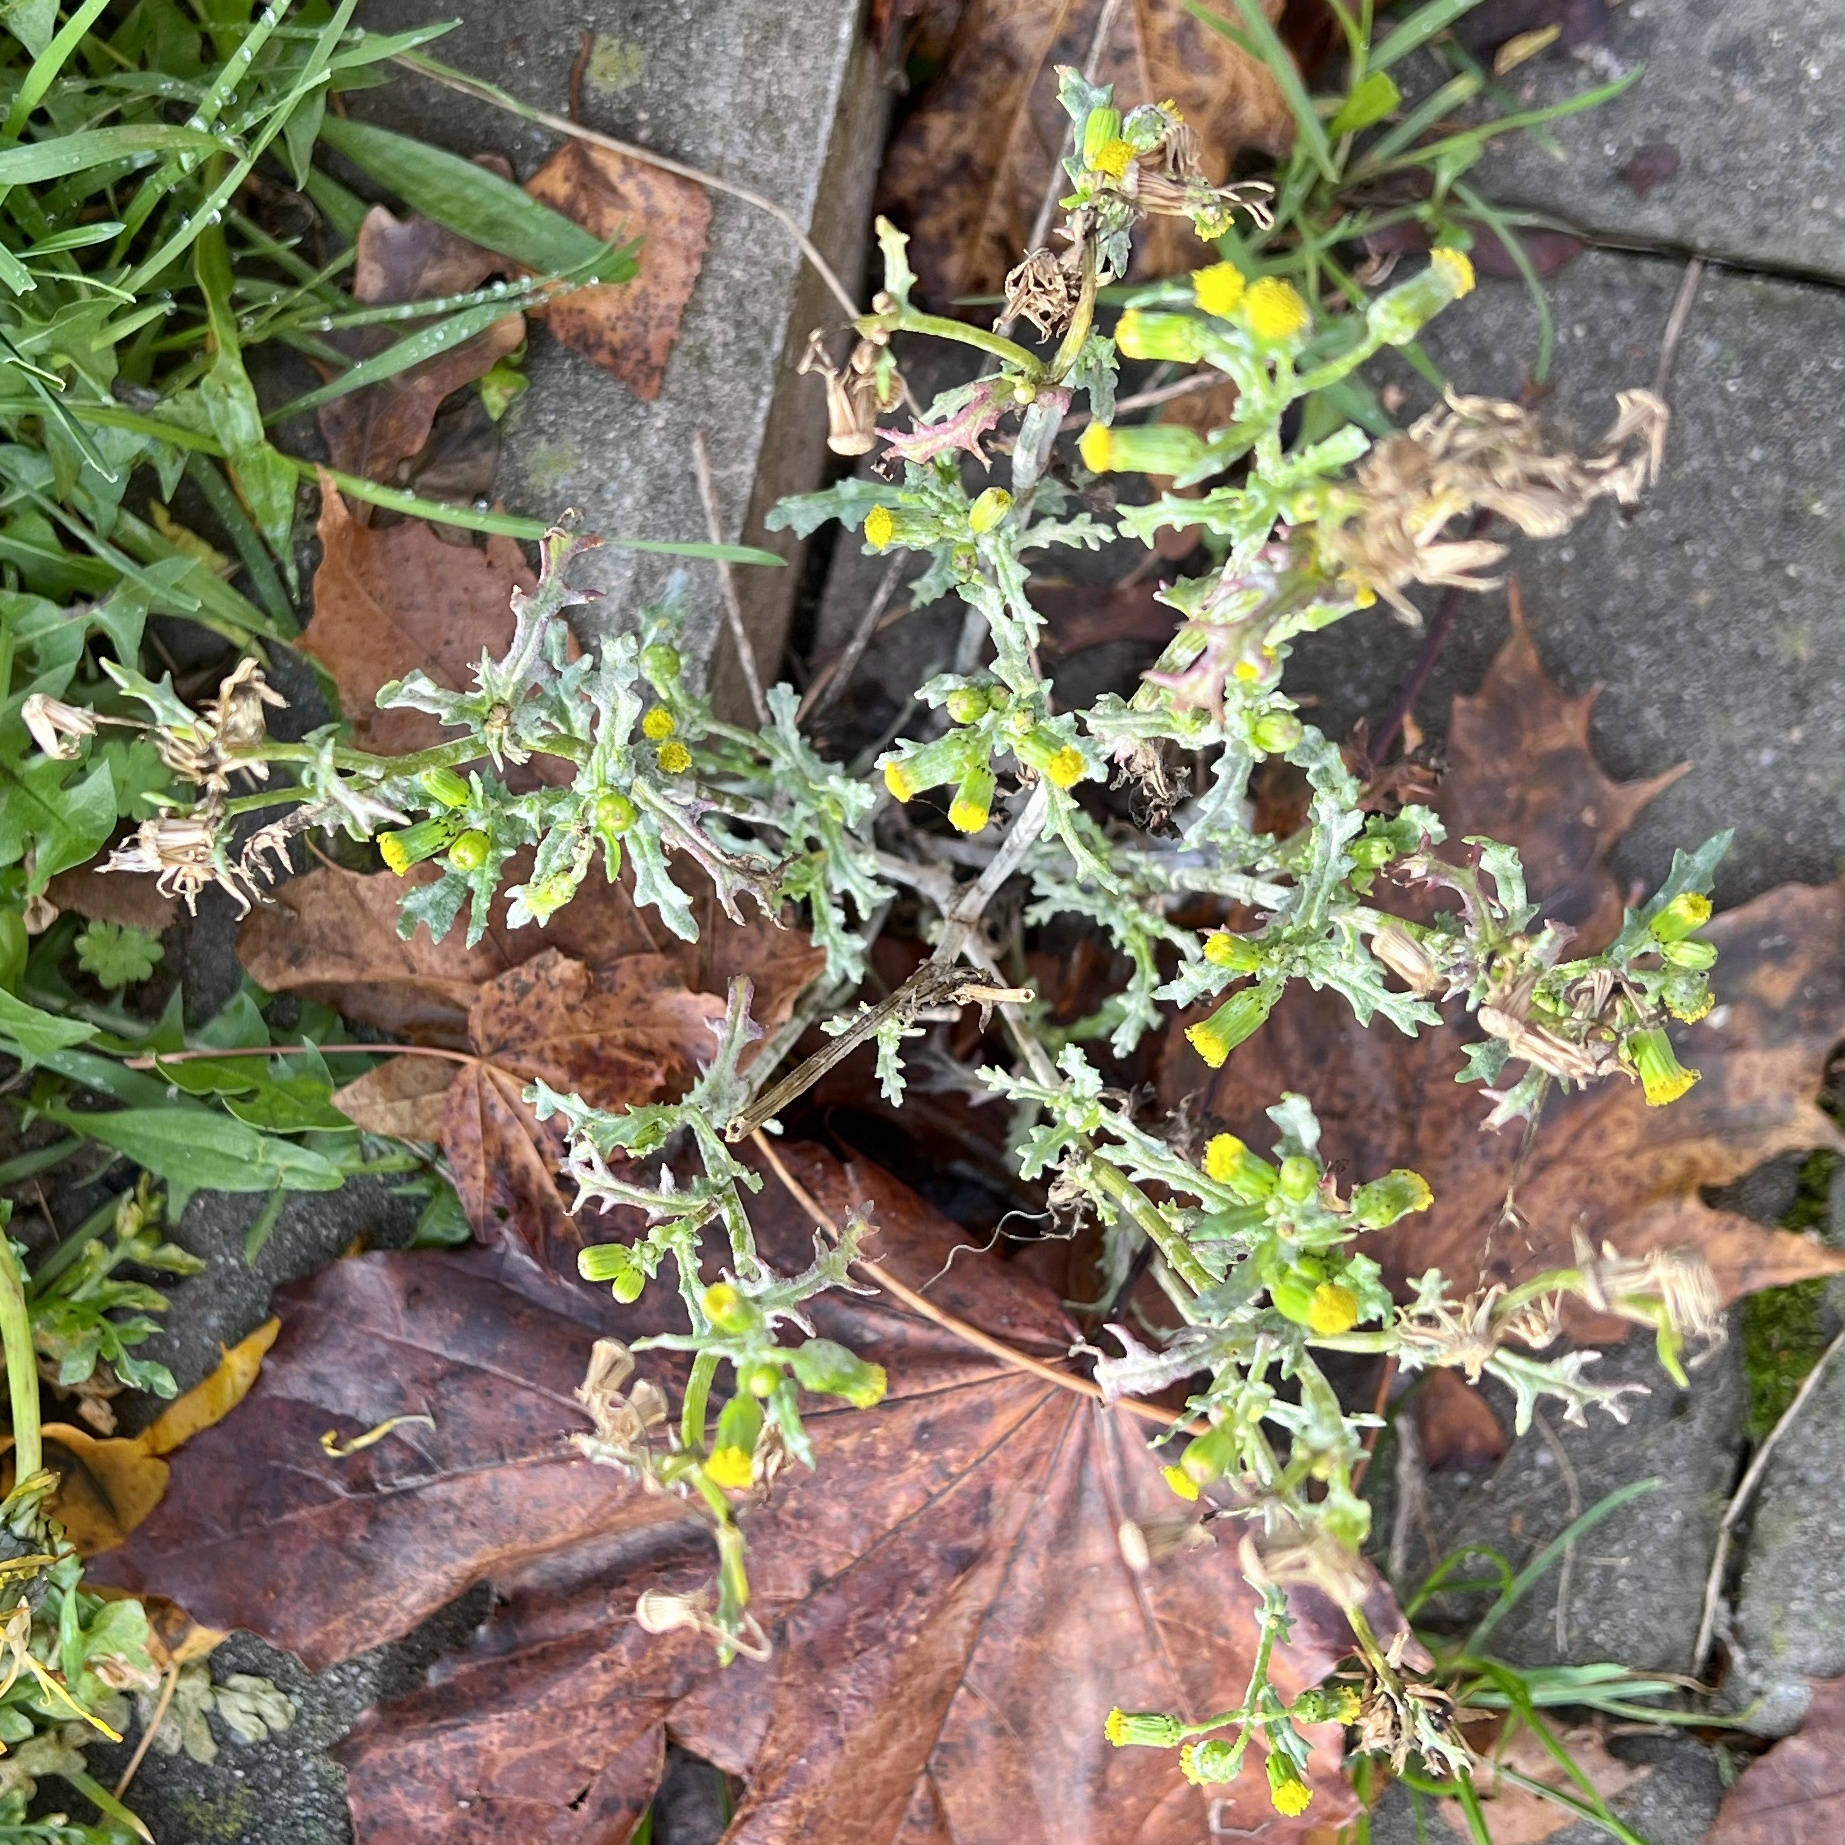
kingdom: Plantae
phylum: Tracheophyta
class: Magnoliopsida
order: Asterales
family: Asteraceae
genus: Senecio
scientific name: Senecio vulgaris
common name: Old-man-in-the-spring
